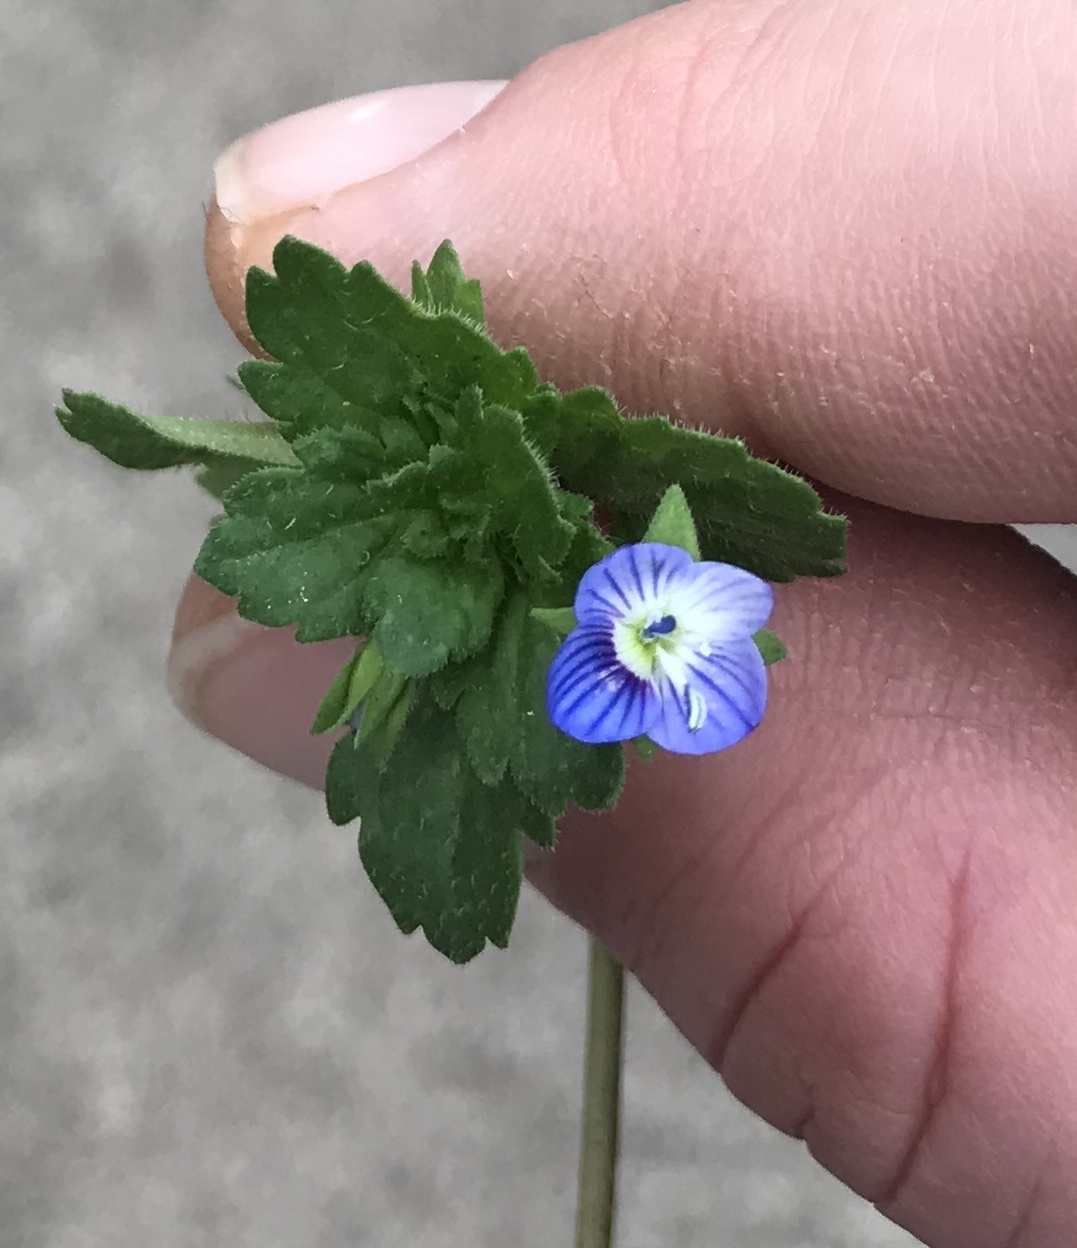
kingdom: Plantae
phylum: Tracheophyta
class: Magnoliopsida
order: Lamiales
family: Plantaginaceae
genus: Veronica
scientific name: Veronica persica
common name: Common field-speedwell
